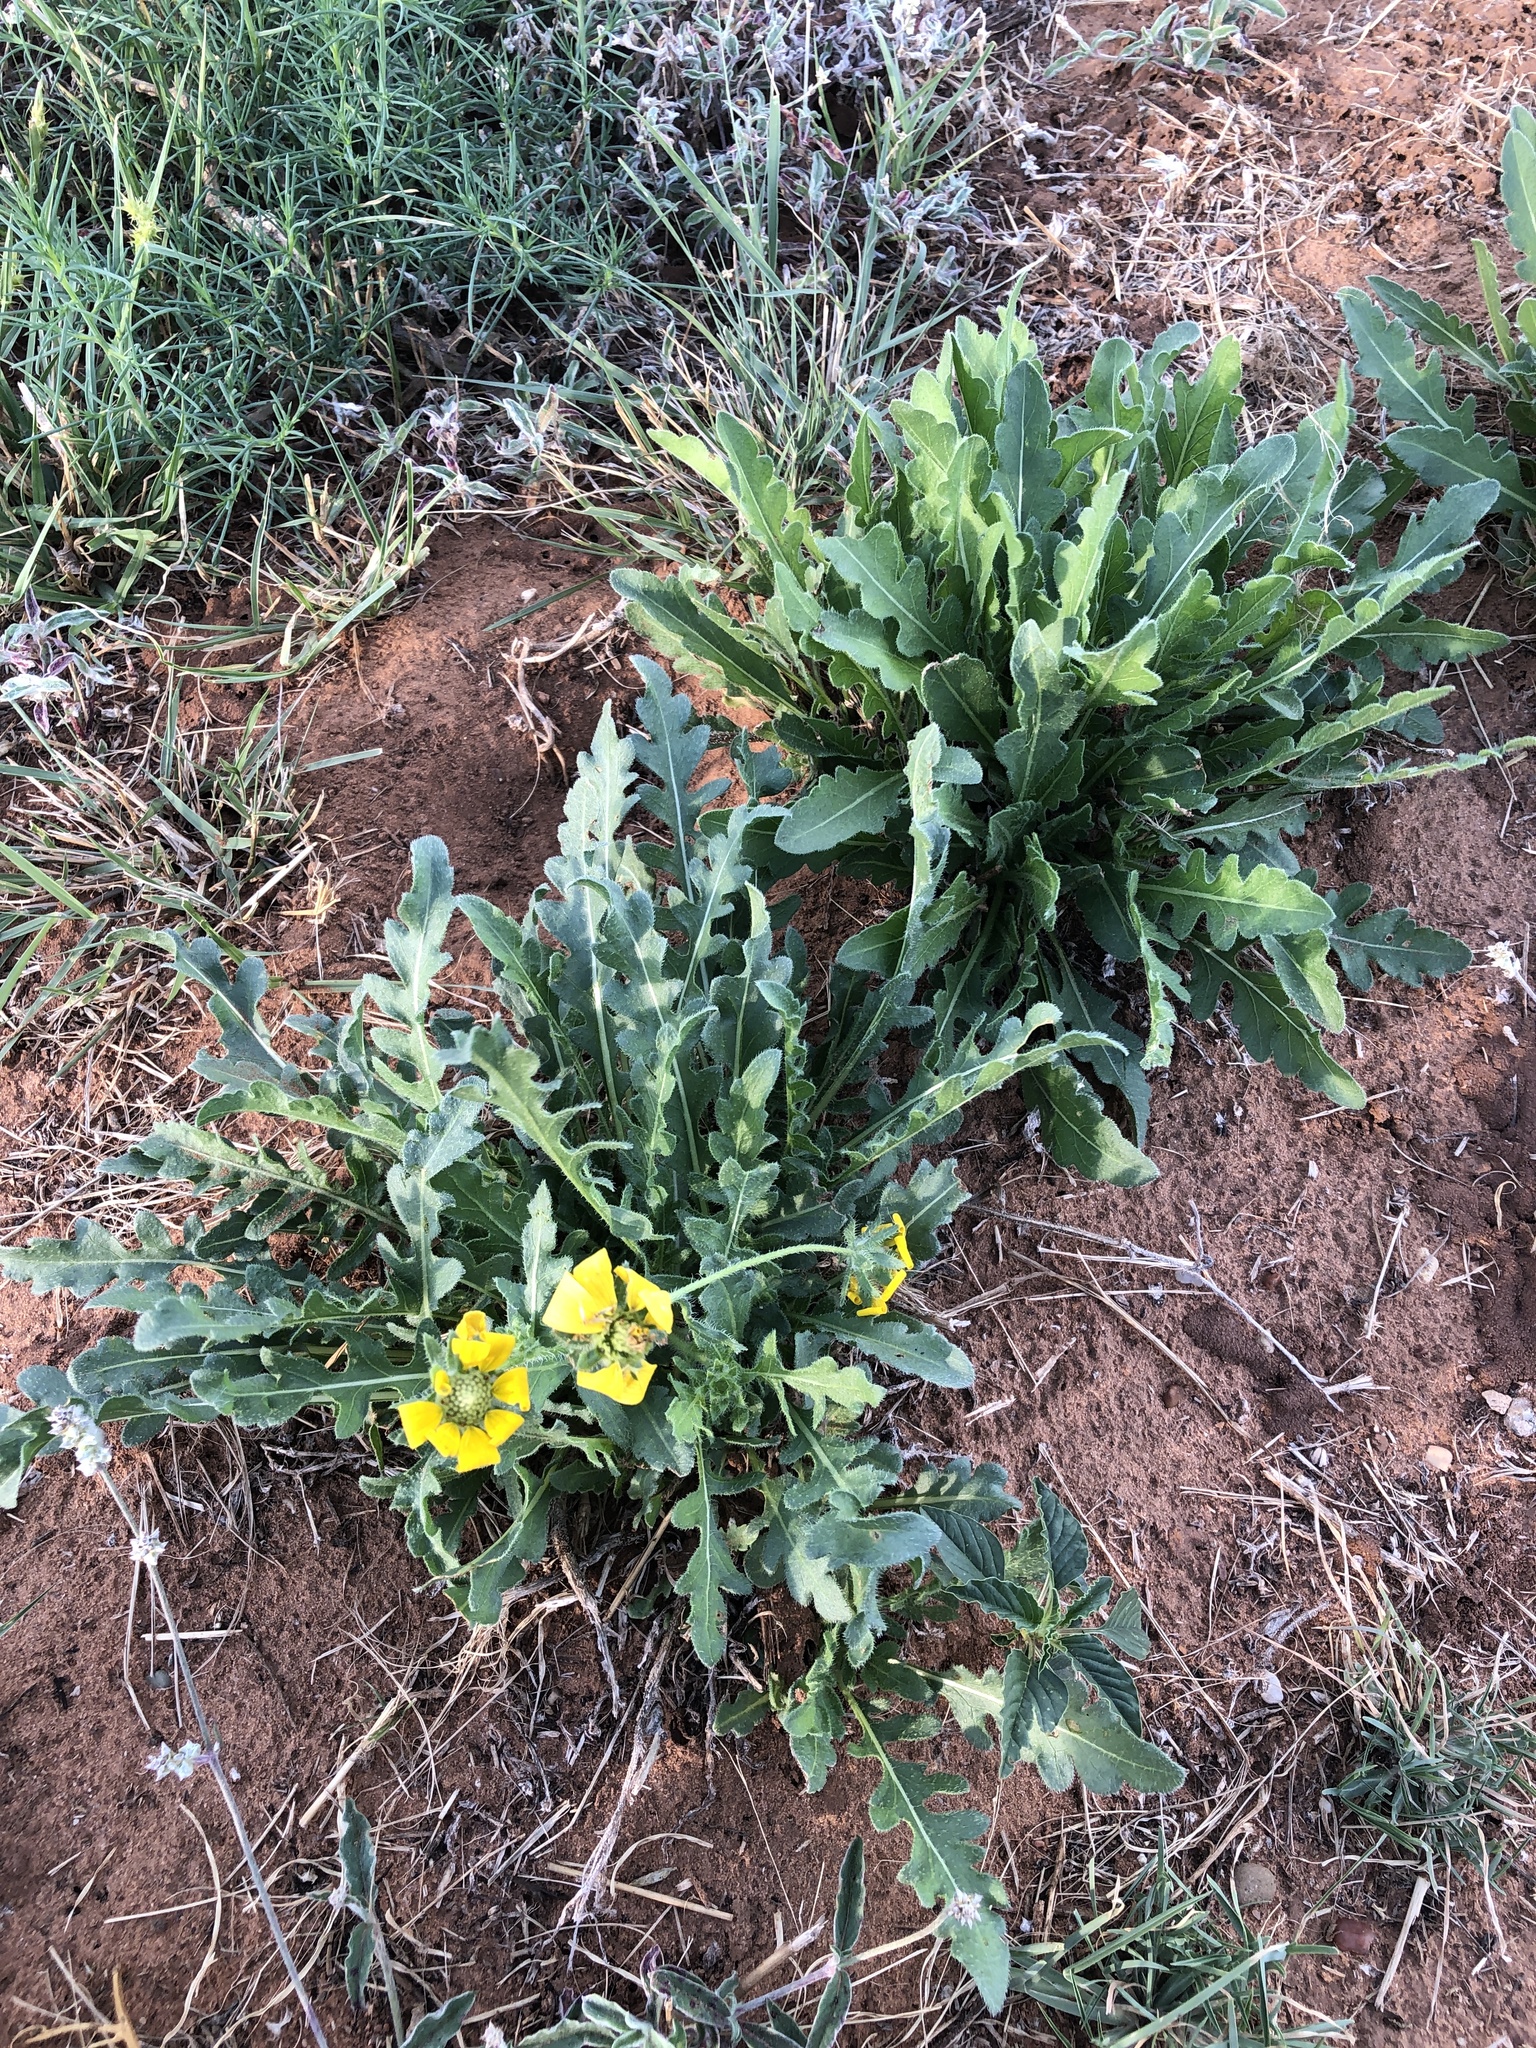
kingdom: Plantae
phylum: Tracheophyta
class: Magnoliopsida
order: Asterales
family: Asteraceae
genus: Engelmannia
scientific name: Engelmannia peristenia
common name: Engelmann's daisy
